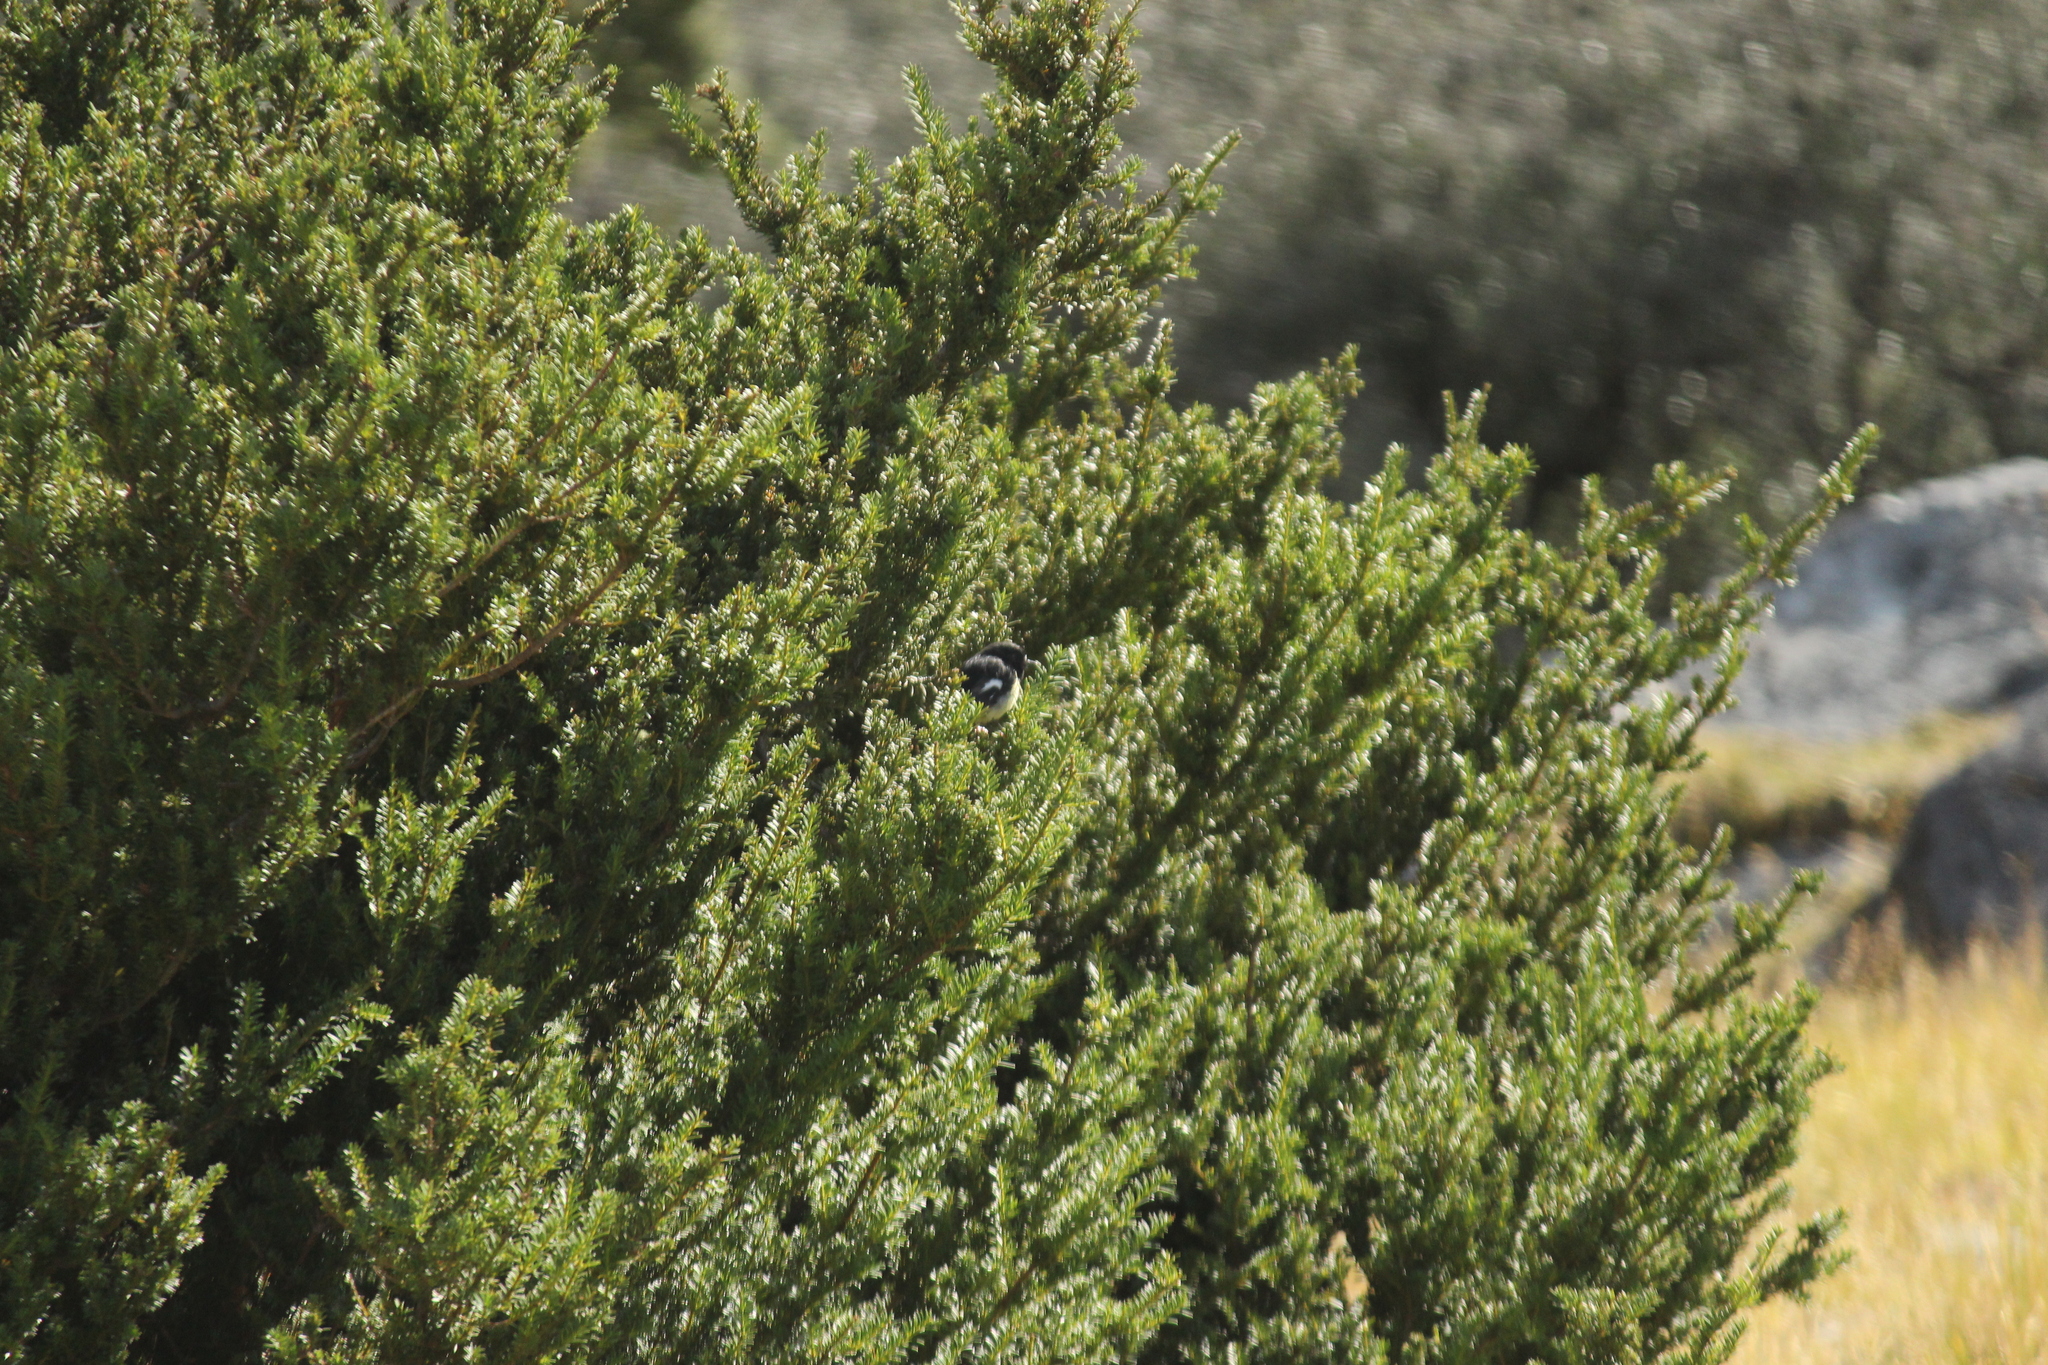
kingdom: Animalia
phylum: Chordata
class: Aves
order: Passeriformes
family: Petroicidae
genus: Petroica
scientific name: Petroica macrocephala
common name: Tomtit
